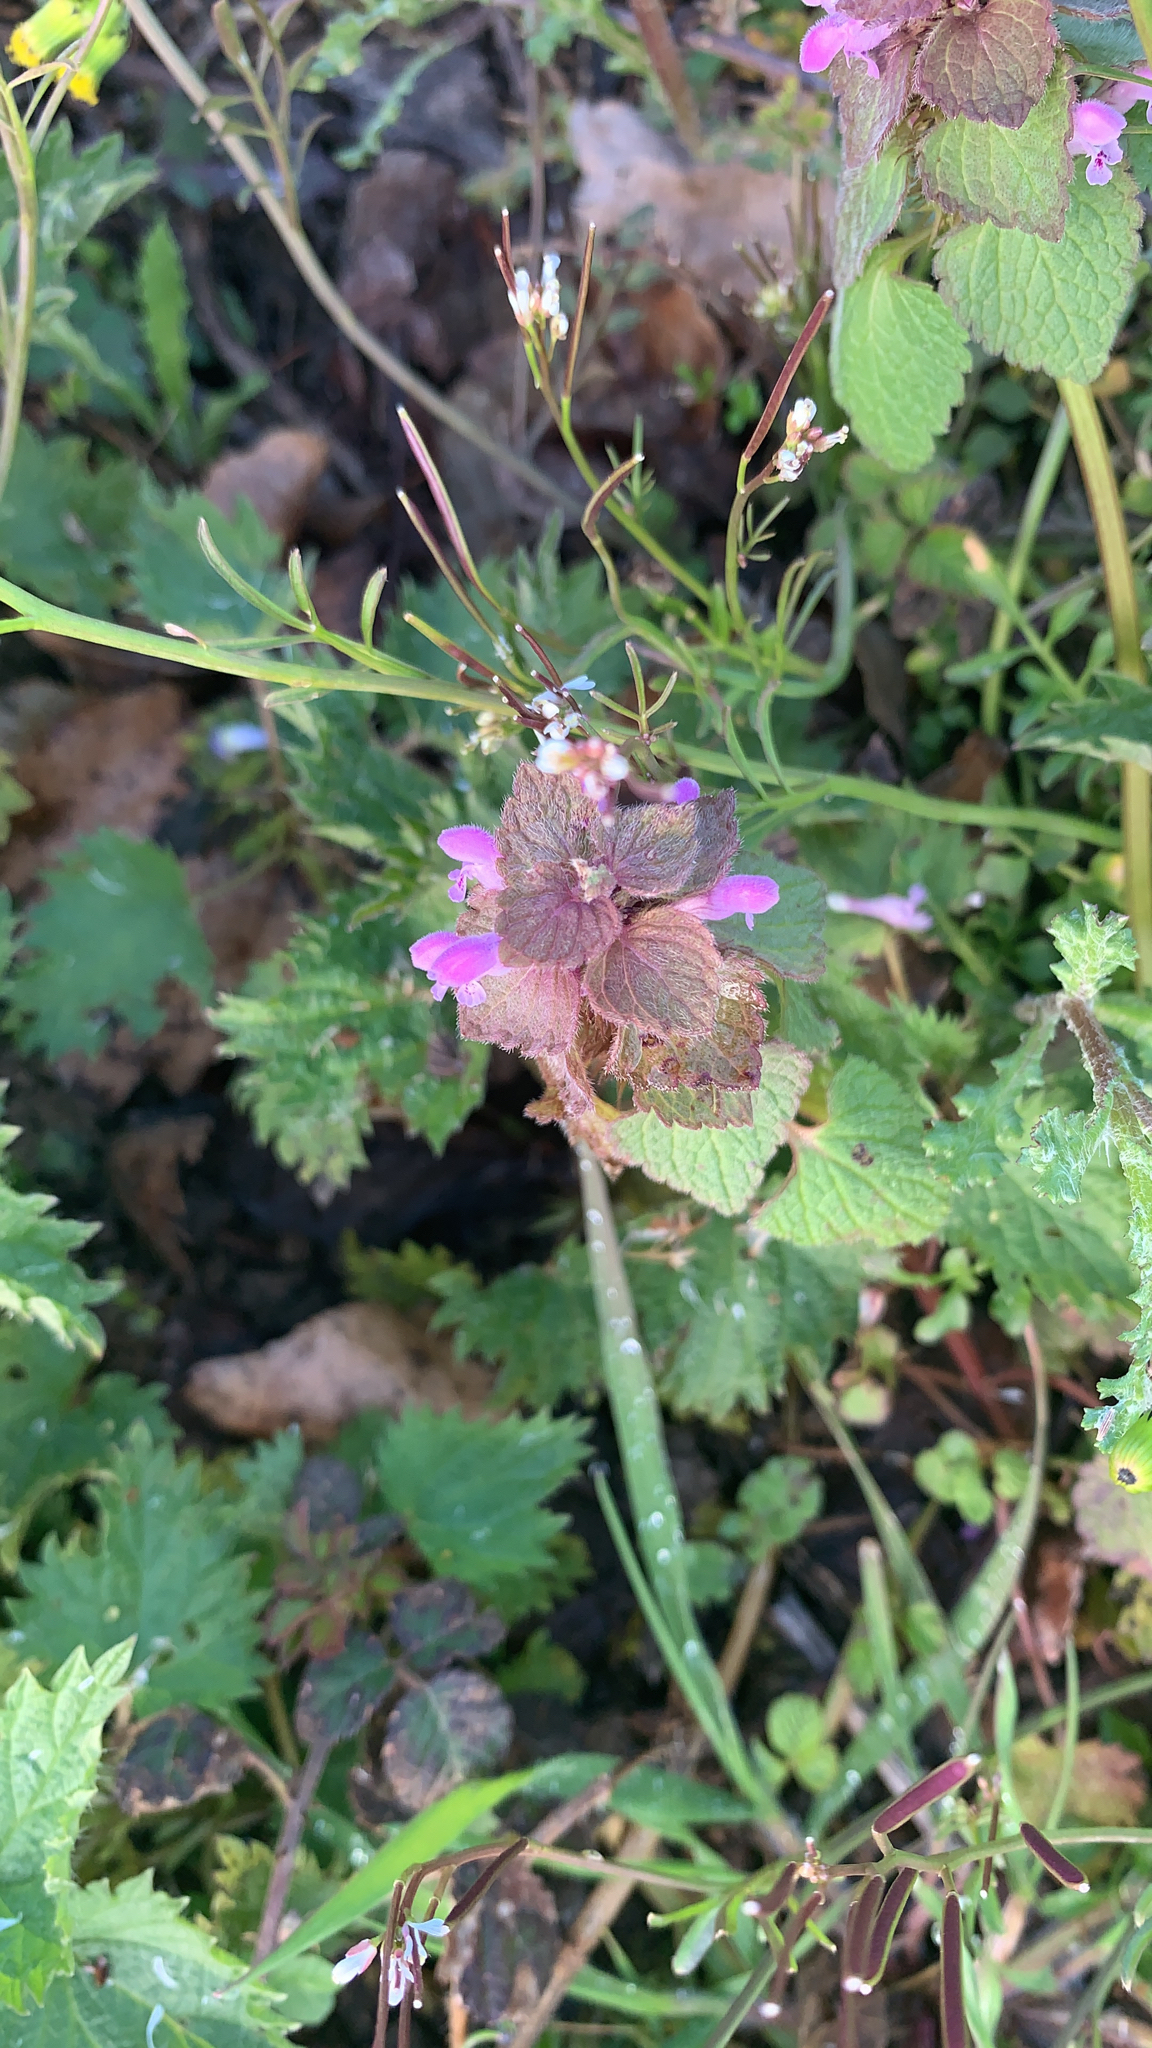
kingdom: Plantae
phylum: Tracheophyta
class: Magnoliopsida
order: Lamiales
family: Lamiaceae
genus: Lamium
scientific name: Lamium purpureum
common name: Red dead-nettle
